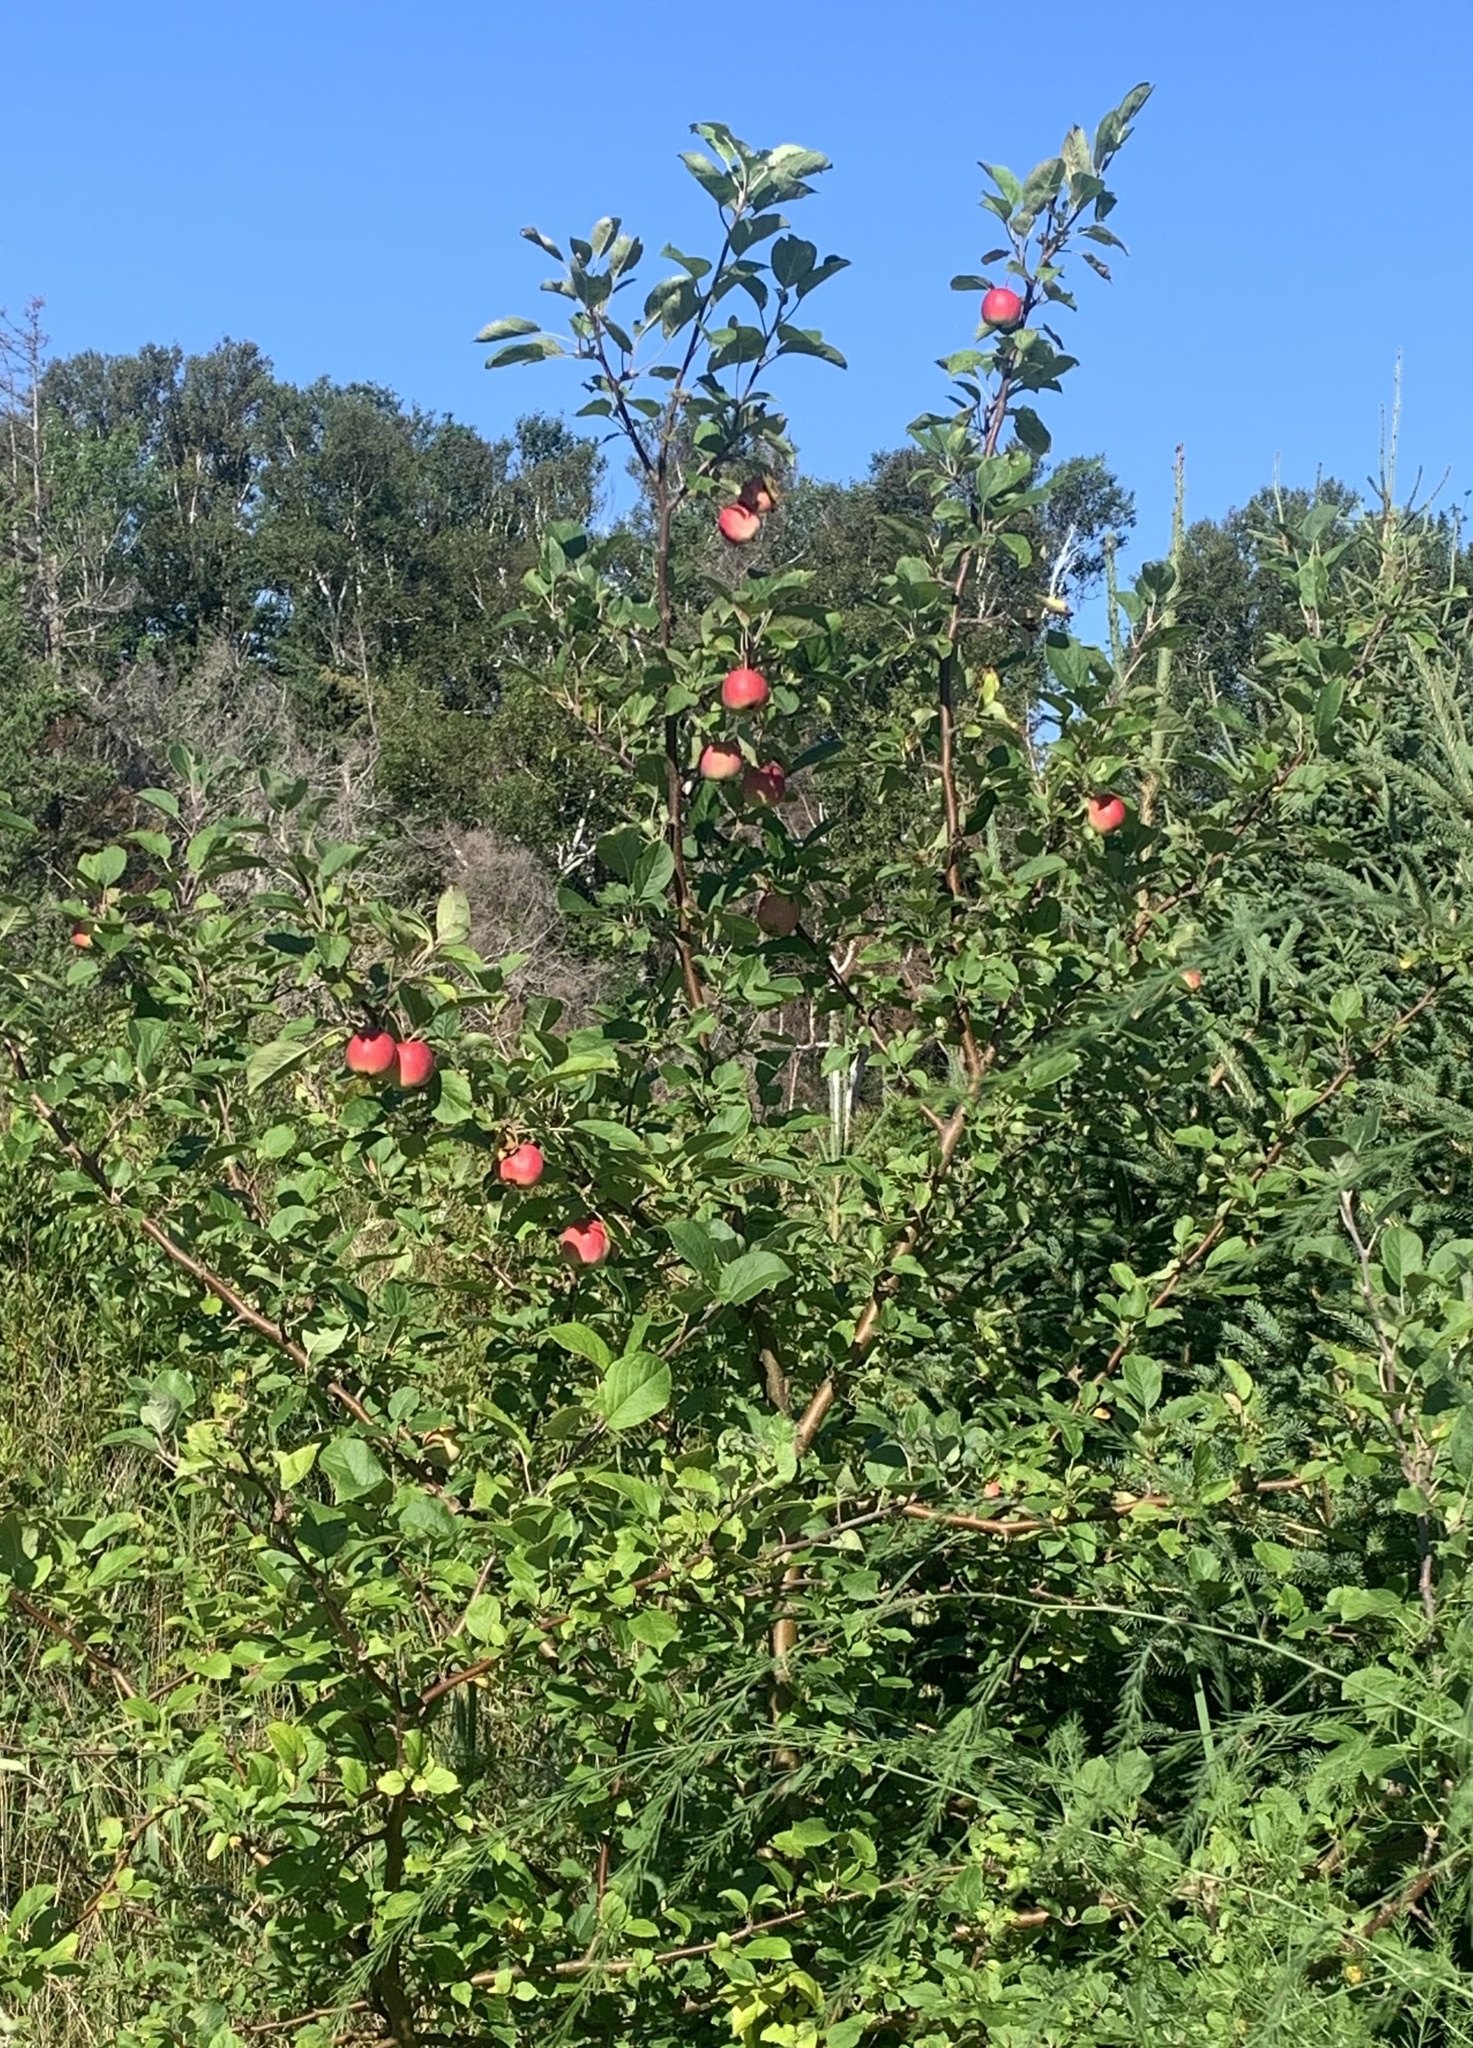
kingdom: Plantae
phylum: Tracheophyta
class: Magnoliopsida
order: Rosales
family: Rosaceae
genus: Malus
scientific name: Malus domestica
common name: Apple
